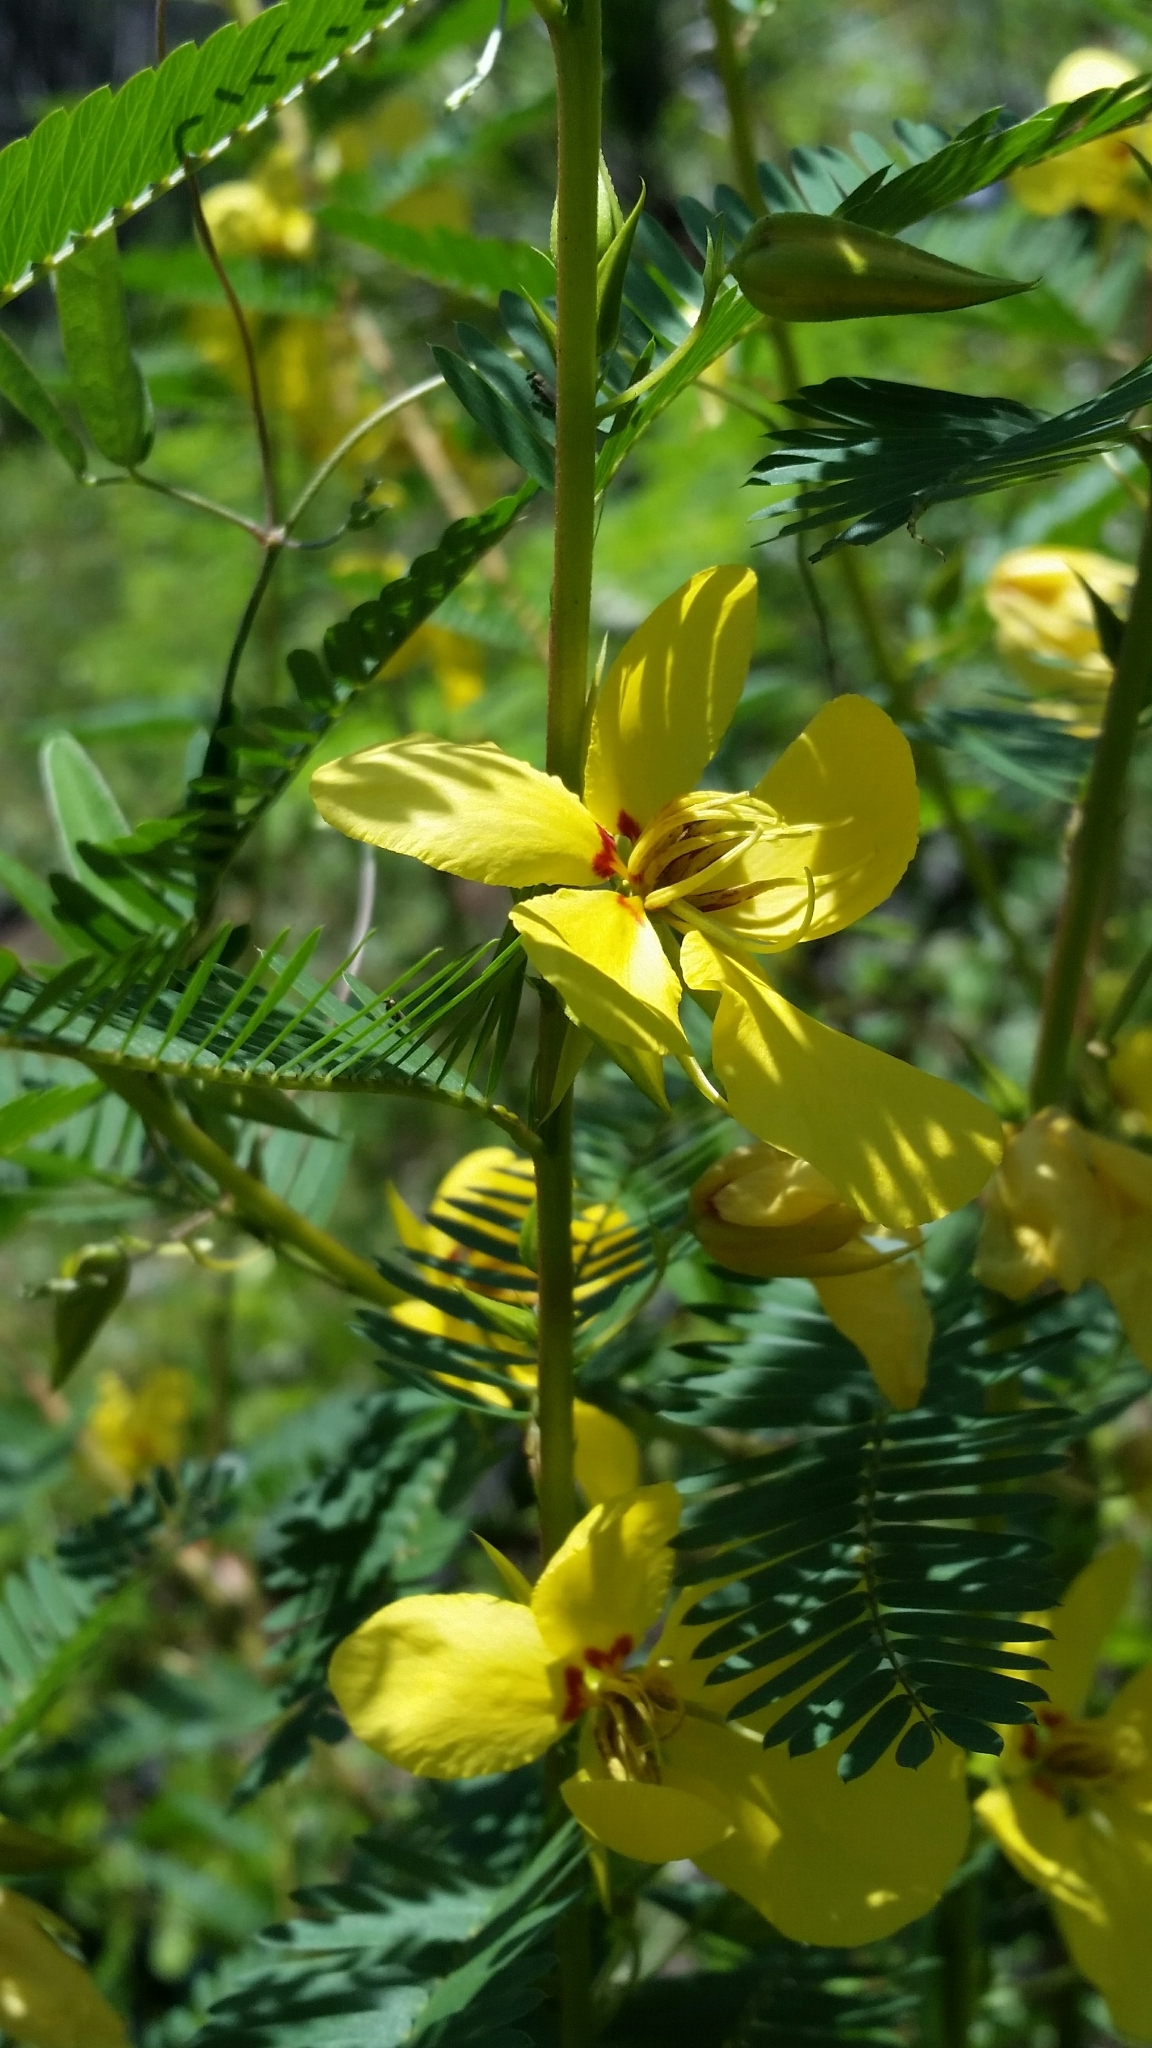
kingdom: Plantae
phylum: Tracheophyta
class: Magnoliopsida
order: Fabales
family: Fabaceae
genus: Chamaecrista
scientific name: Chamaecrista fasciculata
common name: Golden cassia
